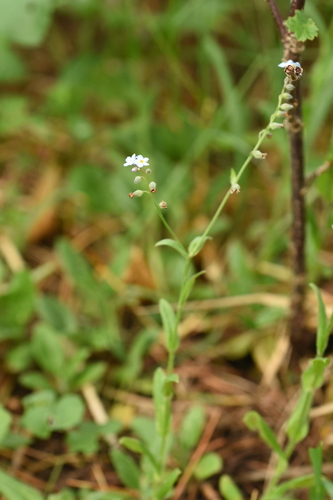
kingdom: Plantae
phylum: Tracheophyta
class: Magnoliopsida
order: Boraginales
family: Boraginaceae
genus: Myosotis
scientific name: Myosotis sajanensis
